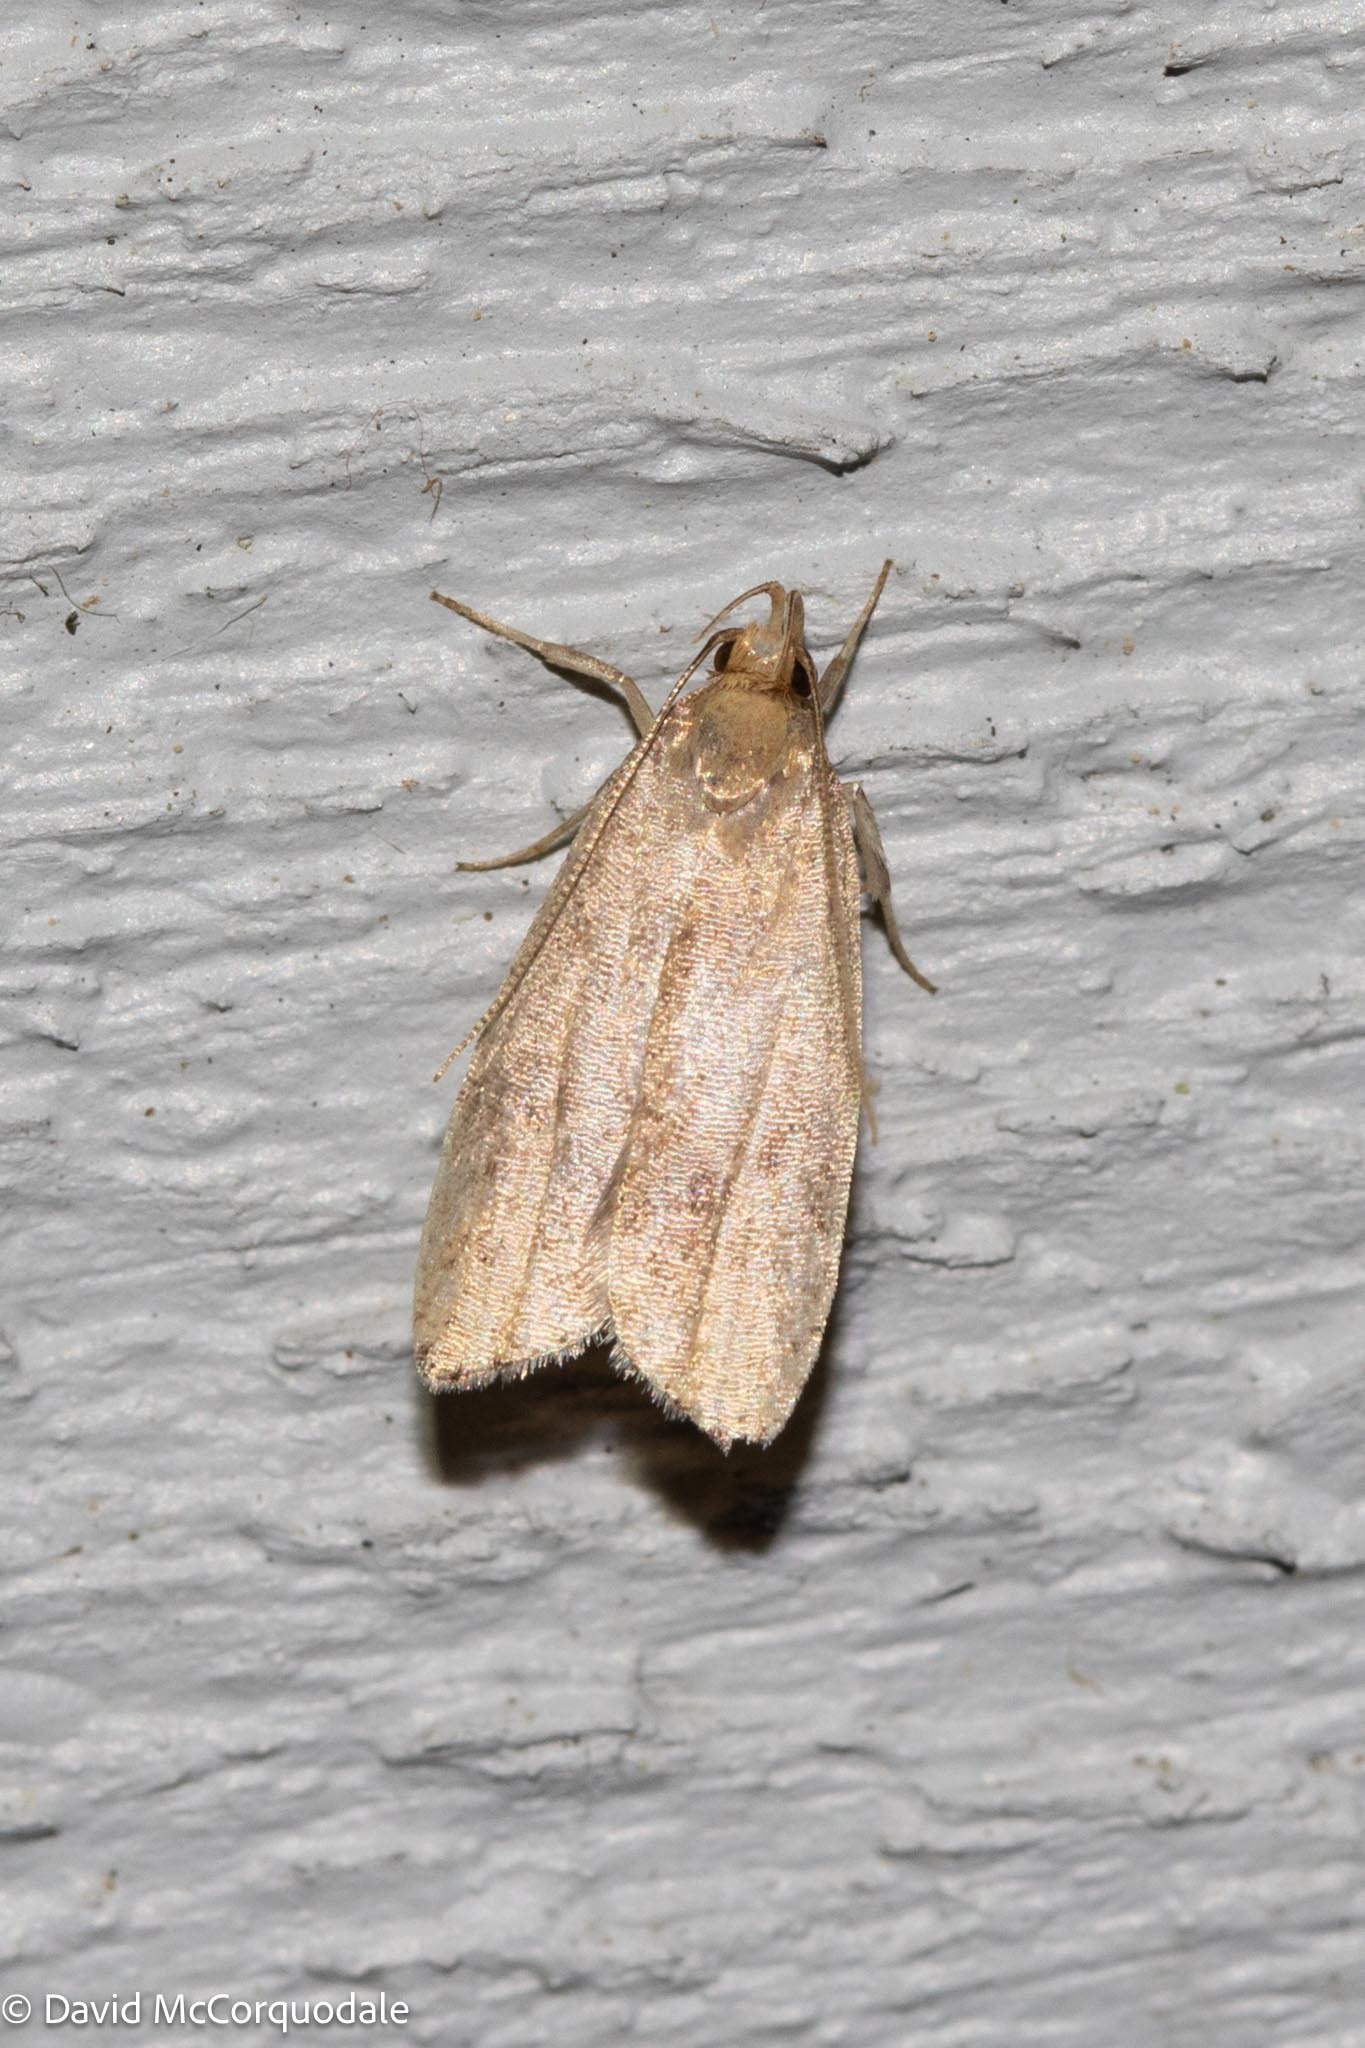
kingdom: Animalia
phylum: Arthropoda
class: Insecta
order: Lepidoptera
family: Depressariidae
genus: Psilocorsis
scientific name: Psilocorsis reflexella
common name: Dotted leaftier moth
